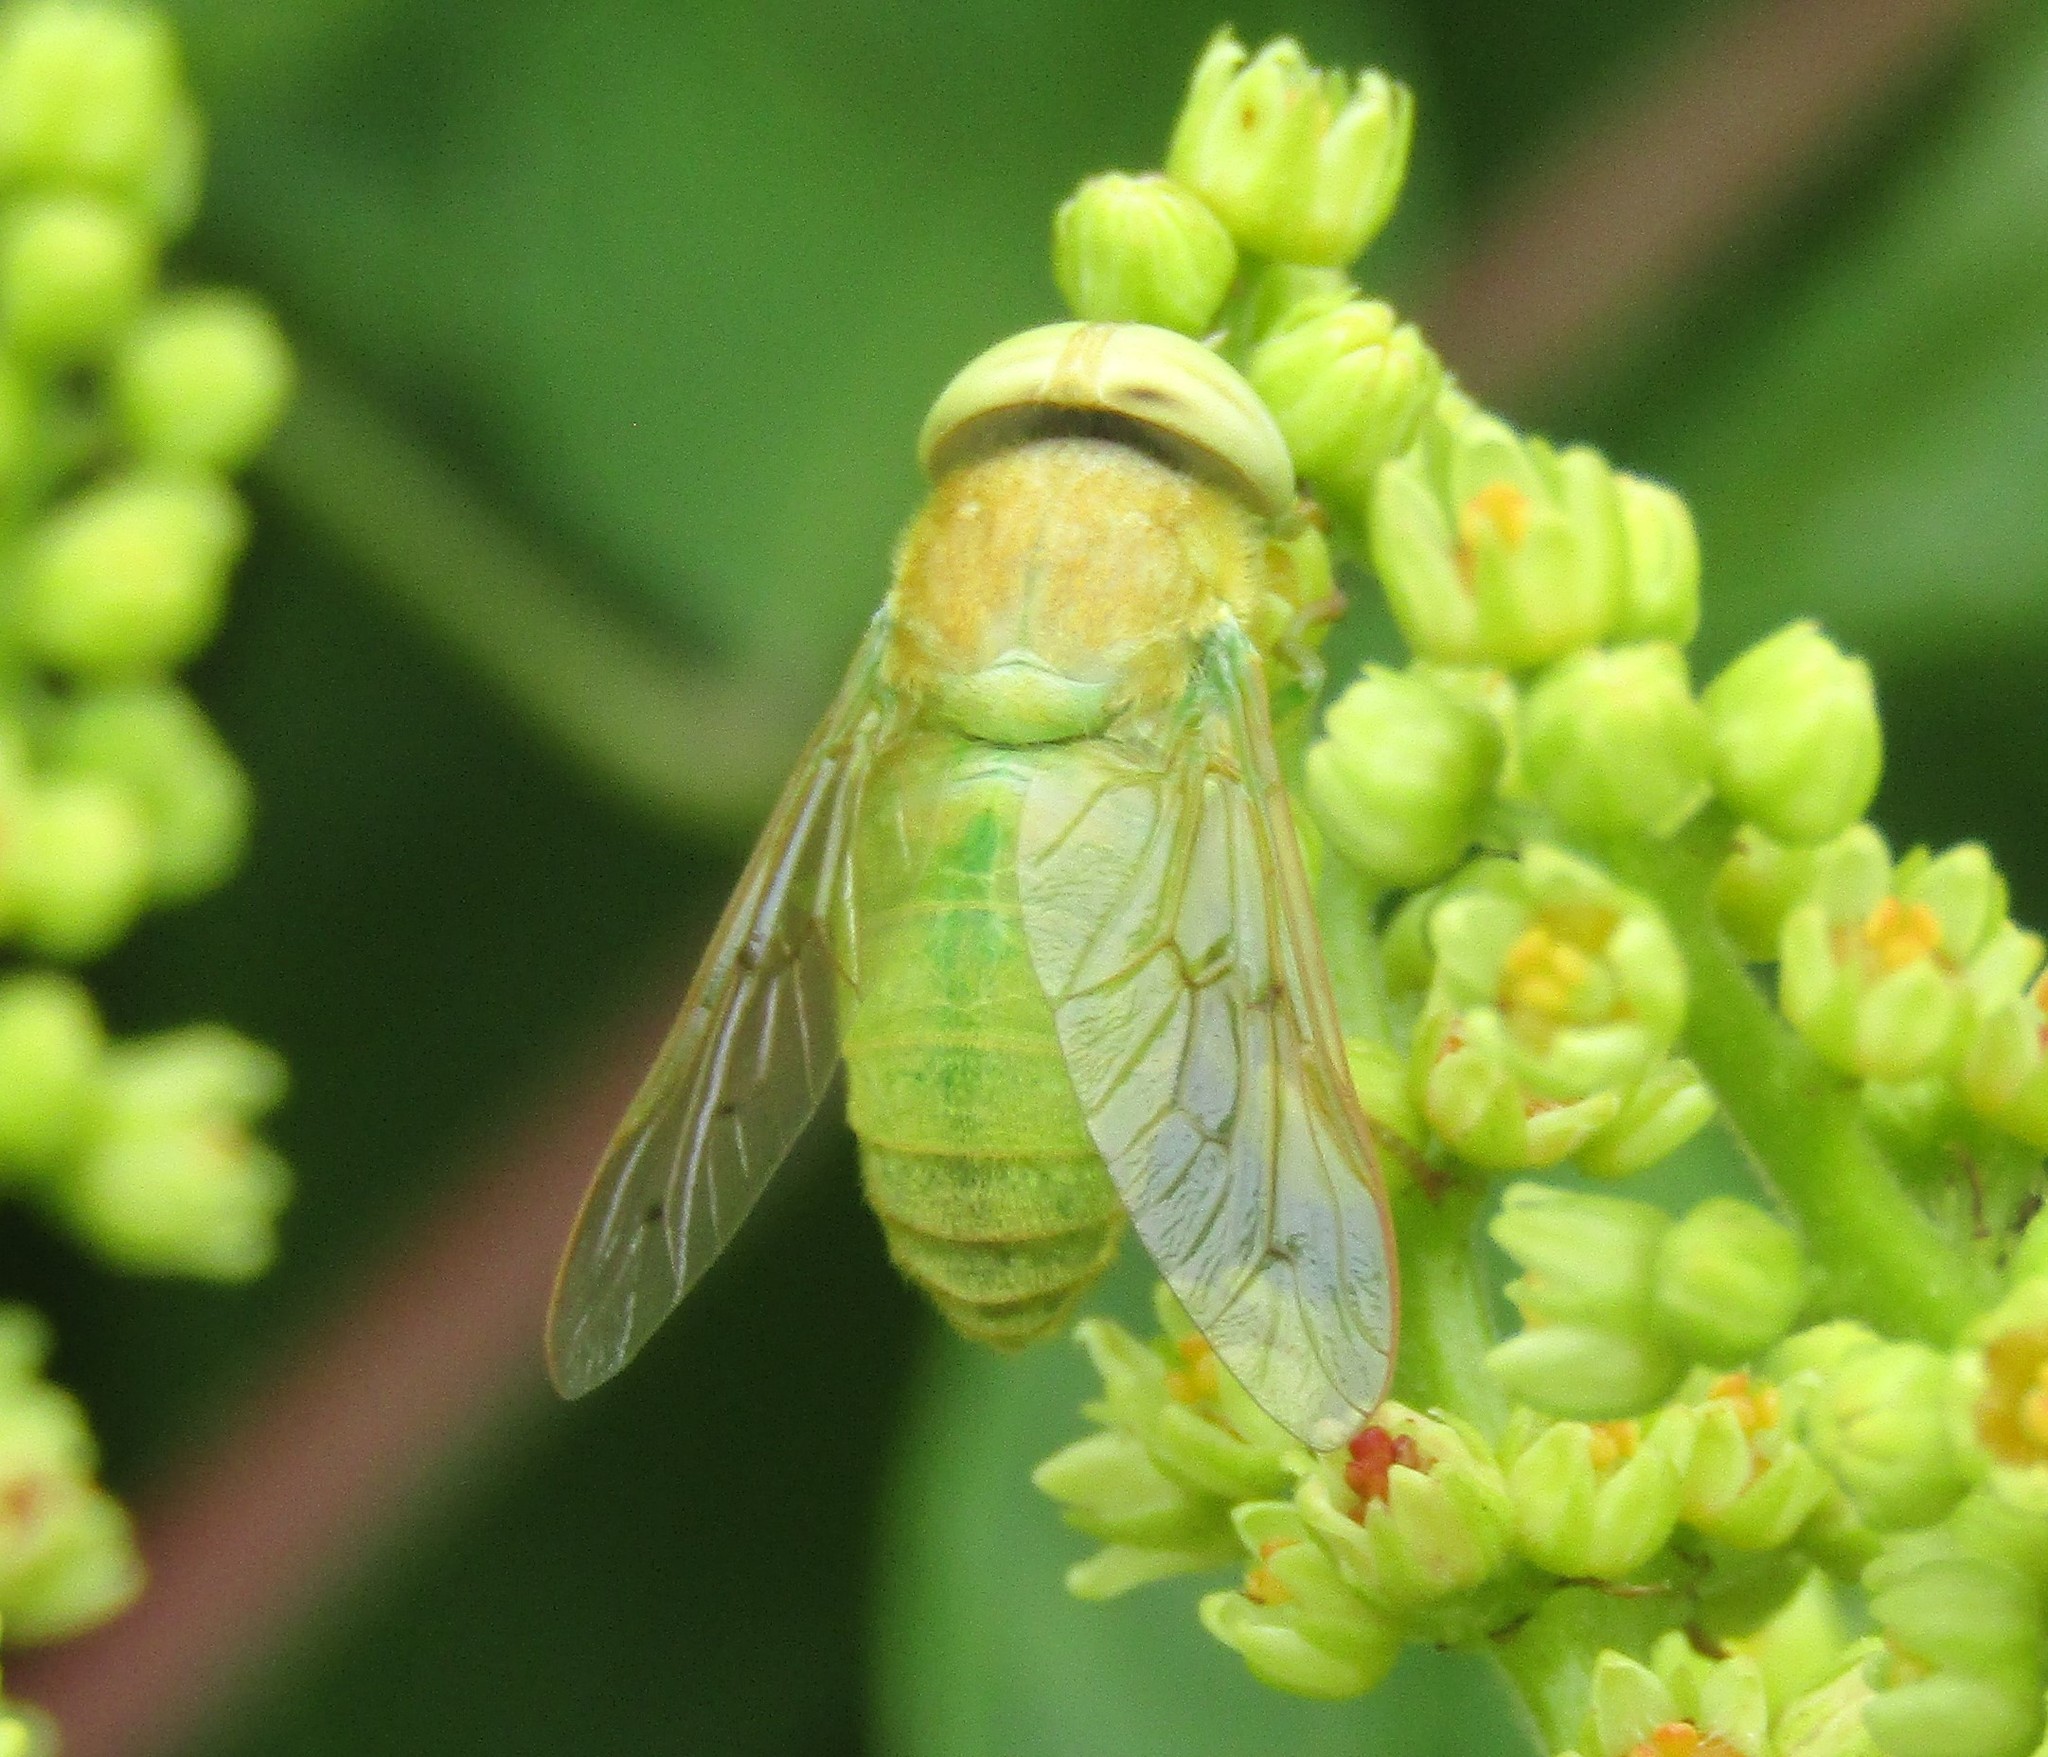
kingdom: Animalia
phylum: Arthropoda
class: Insecta
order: Diptera
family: Tabanidae
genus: Chlorotabanus
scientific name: Chlorotabanus crepuscularis
